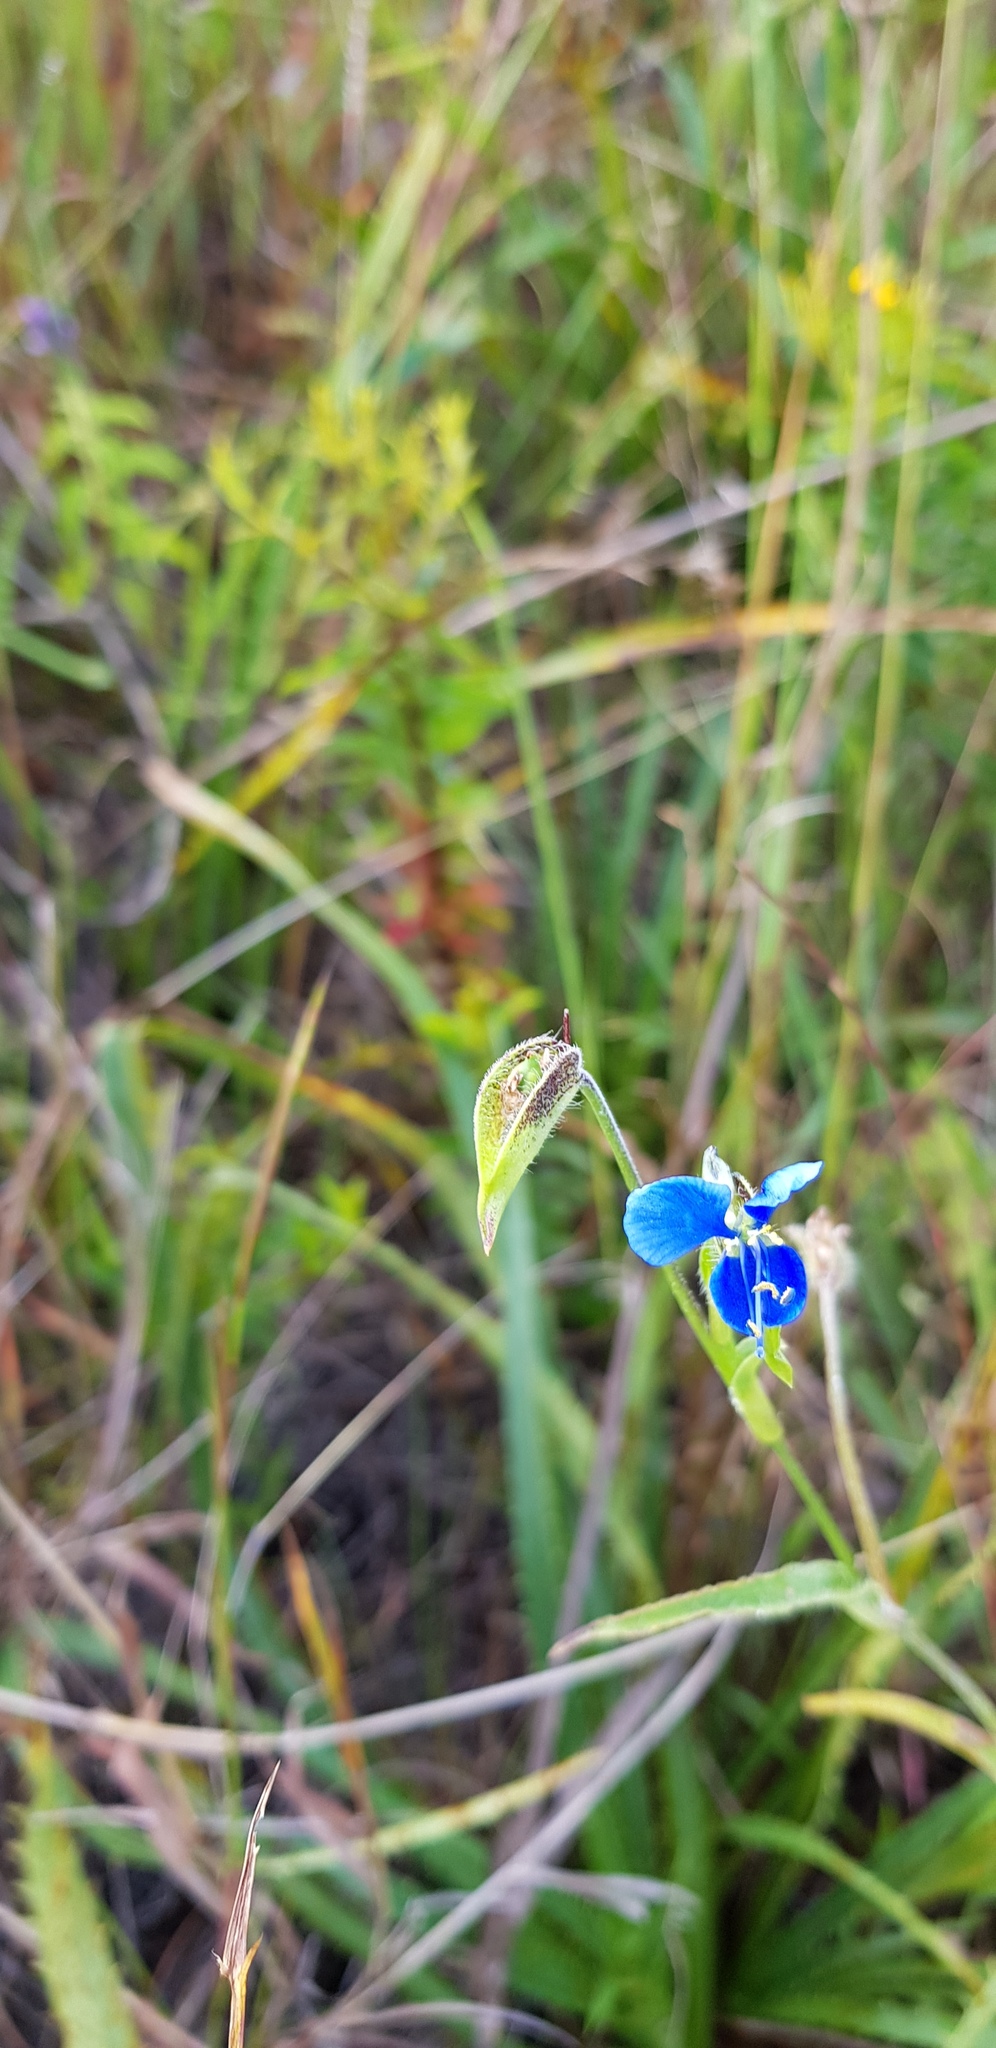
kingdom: Plantae
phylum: Tracheophyta
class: Liliopsida
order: Commelinales
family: Commelinaceae
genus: Commelina
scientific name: Commelina tuberosa
